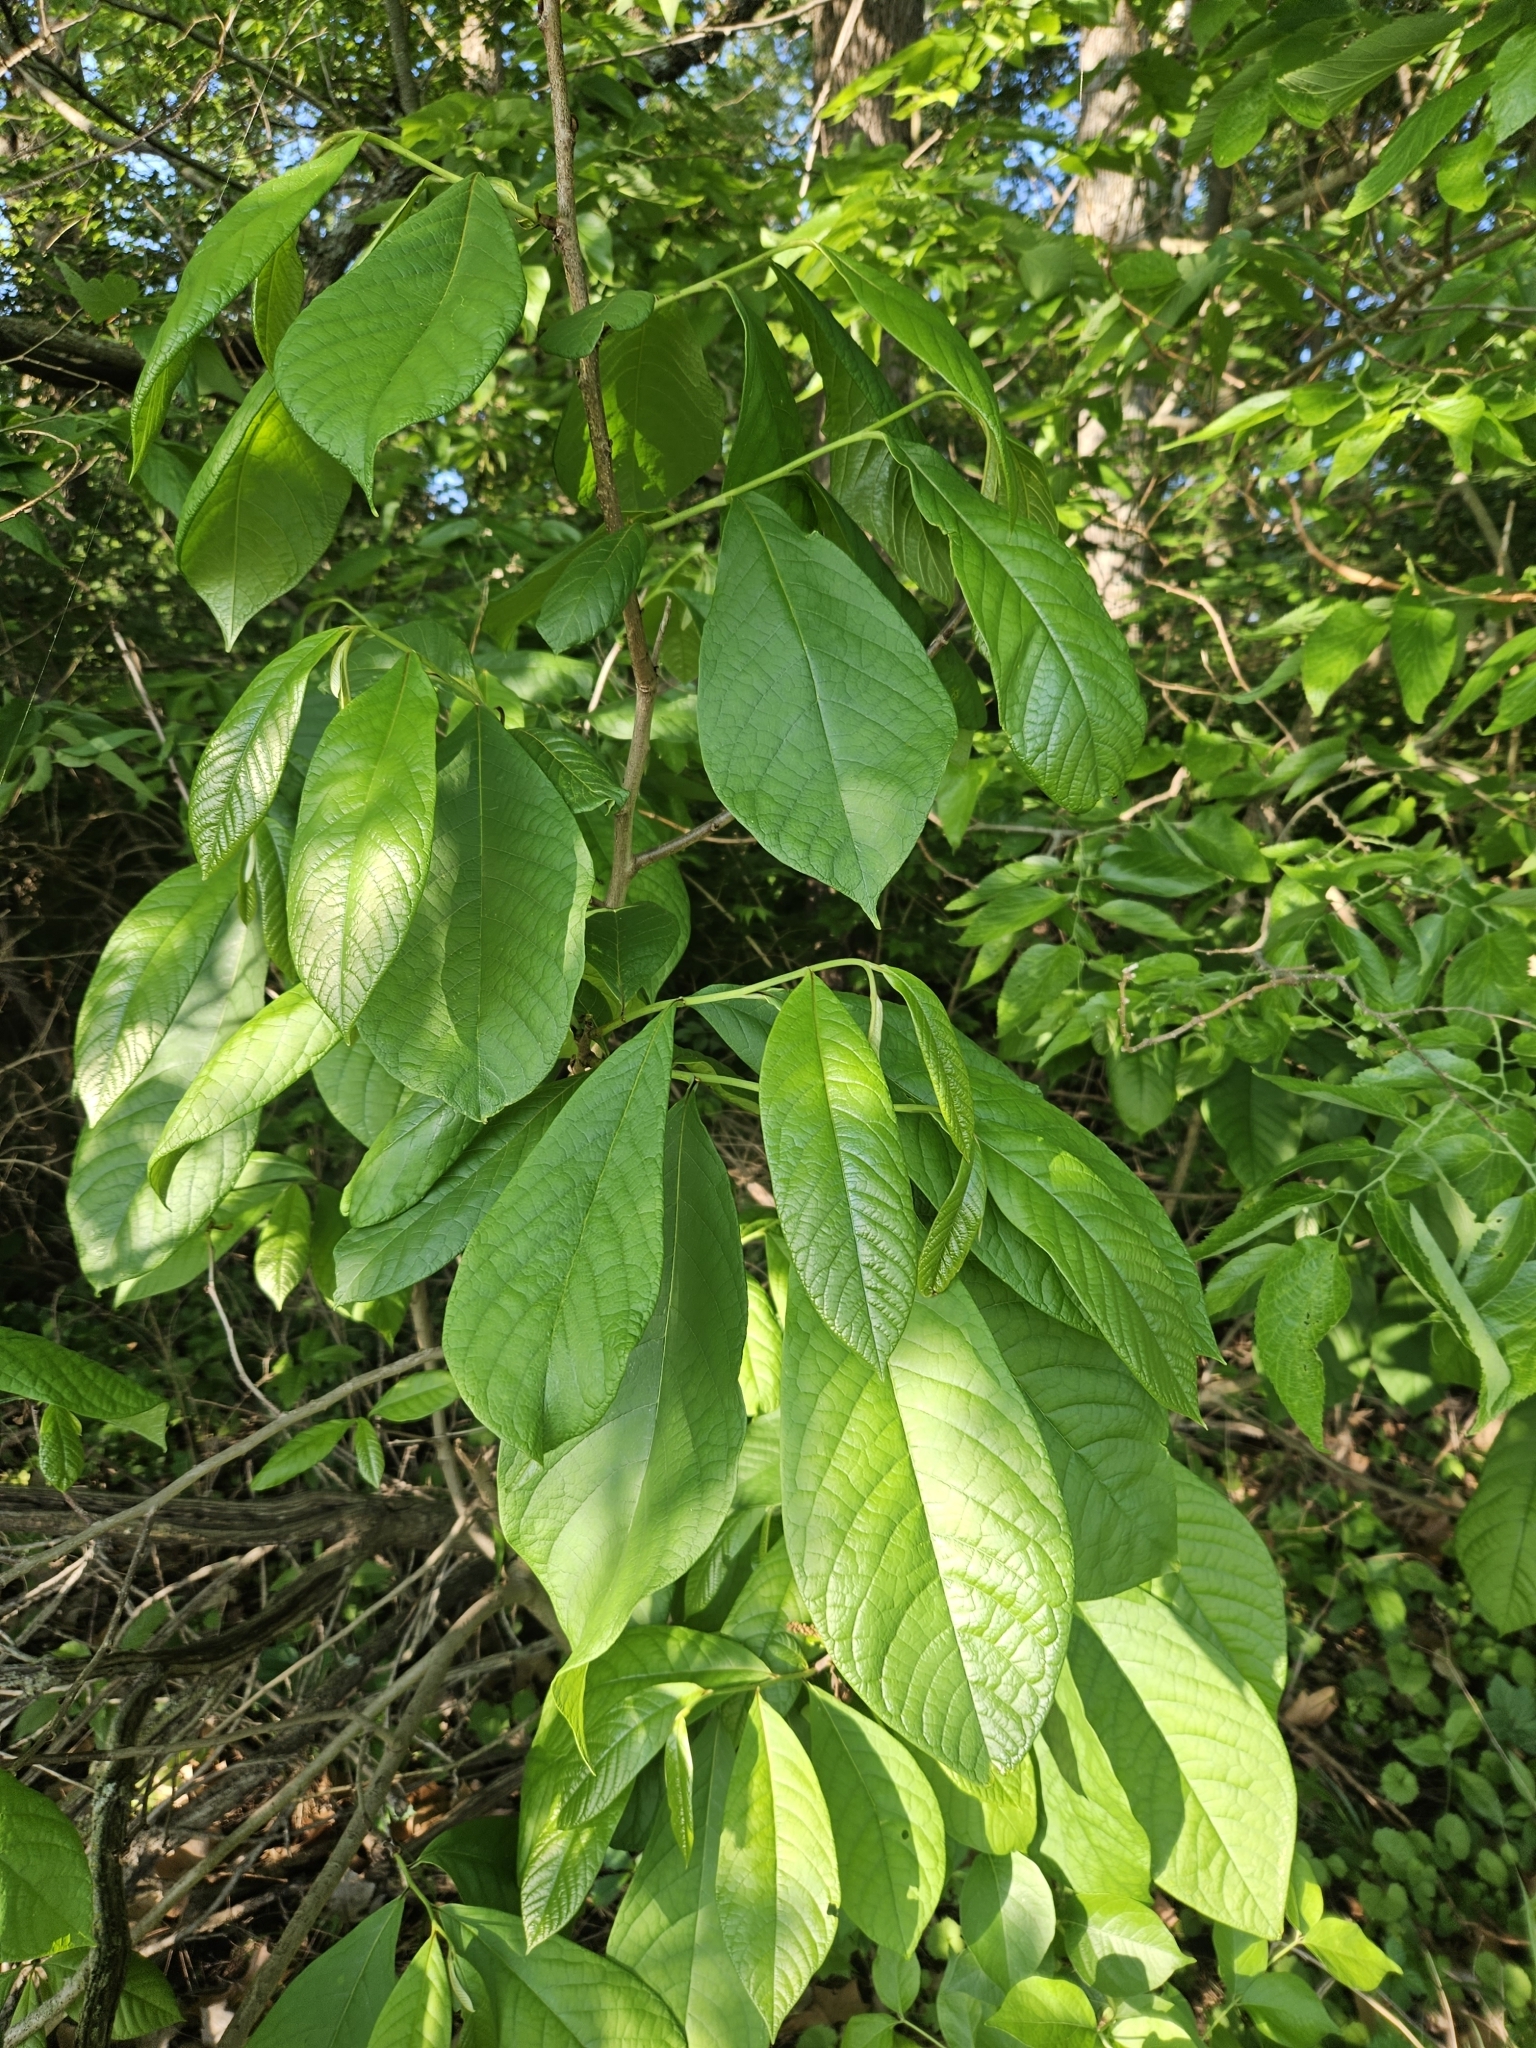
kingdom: Plantae
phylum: Tracheophyta
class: Magnoliopsida
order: Magnoliales
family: Annonaceae
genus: Asimina
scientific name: Asimina triloba
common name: Dog-banana
